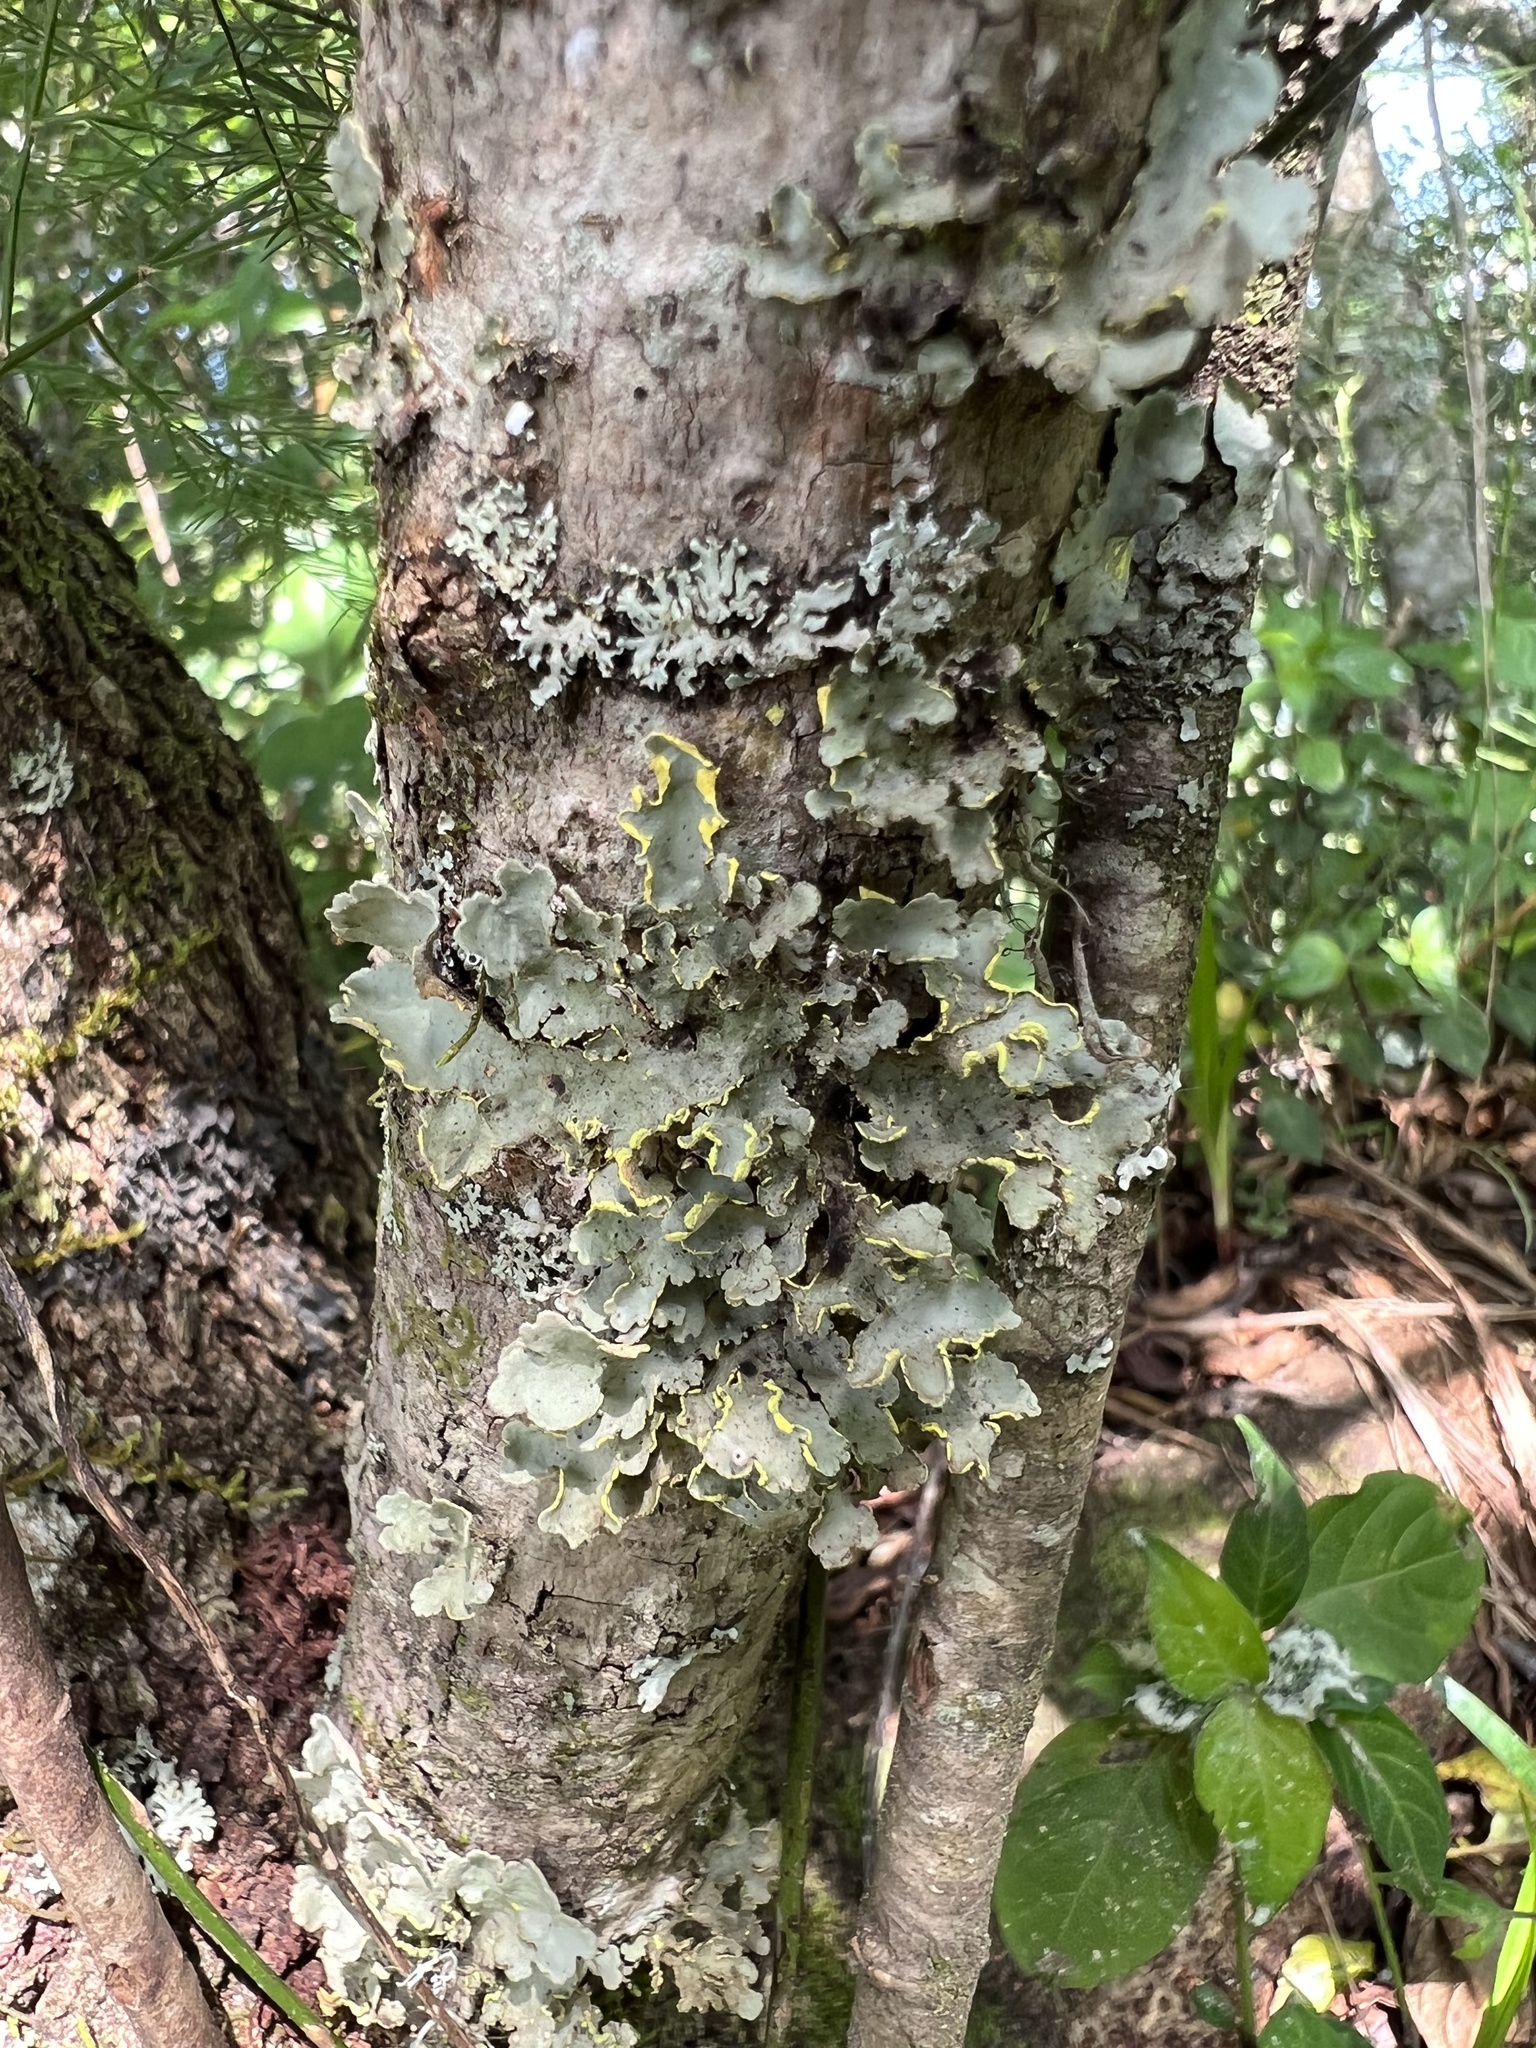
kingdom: Fungi
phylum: Ascomycota
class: Lecanoromycetes
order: Peltigerales
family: Lobariaceae
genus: Pseudocyphellaria
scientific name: Pseudocyphellaria aurata
